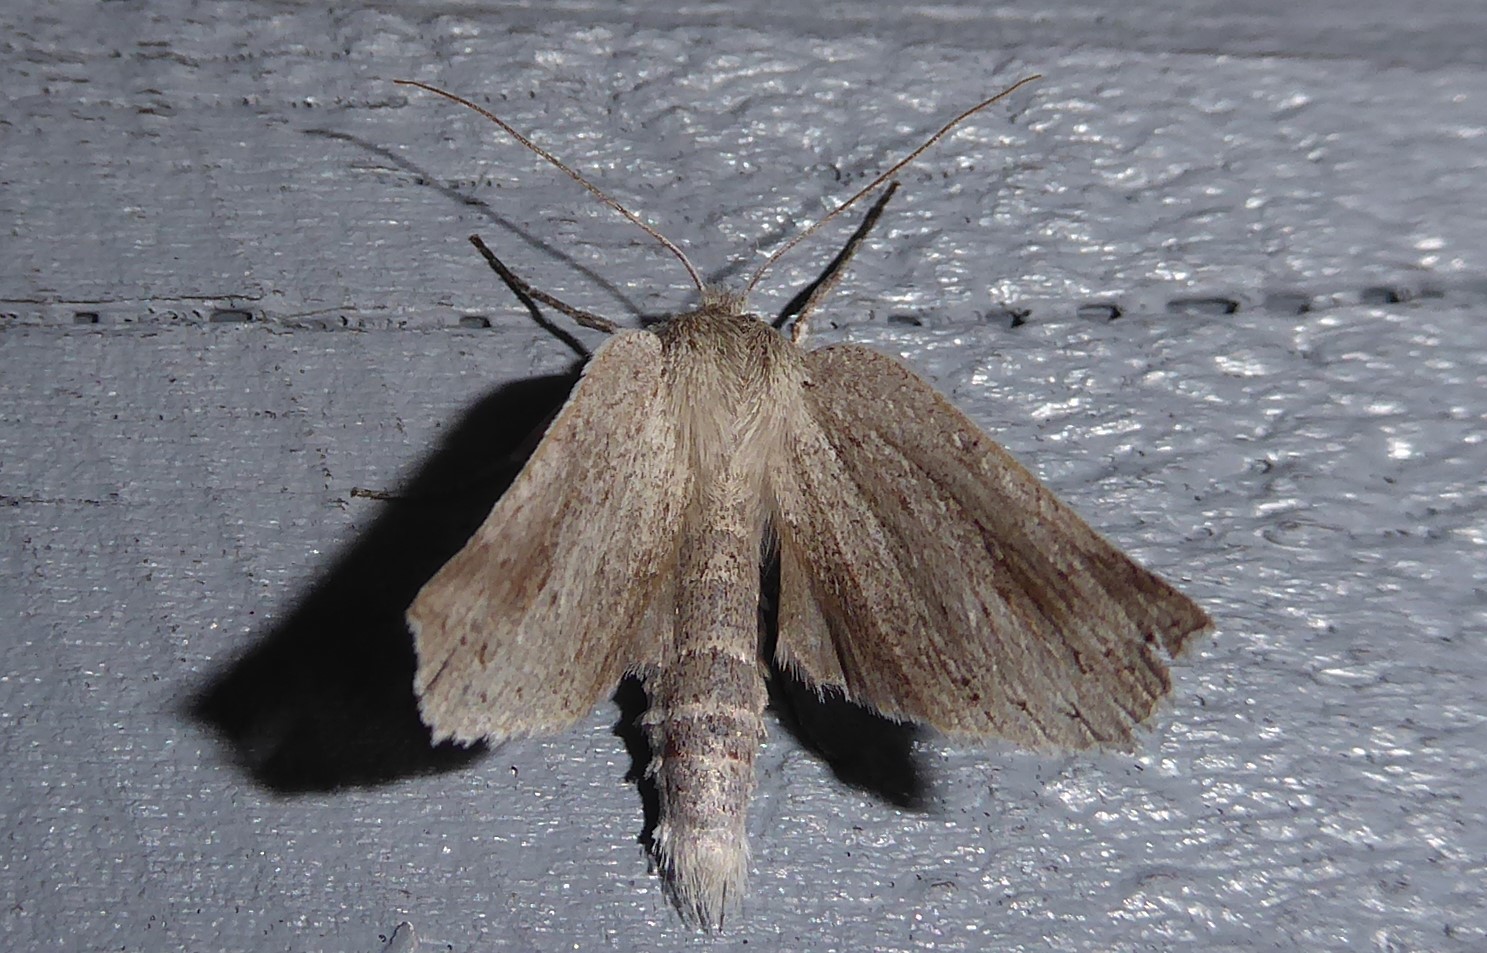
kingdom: Animalia
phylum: Arthropoda
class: Insecta
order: Lepidoptera
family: Geometridae
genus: Declana
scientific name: Declana leptomera
